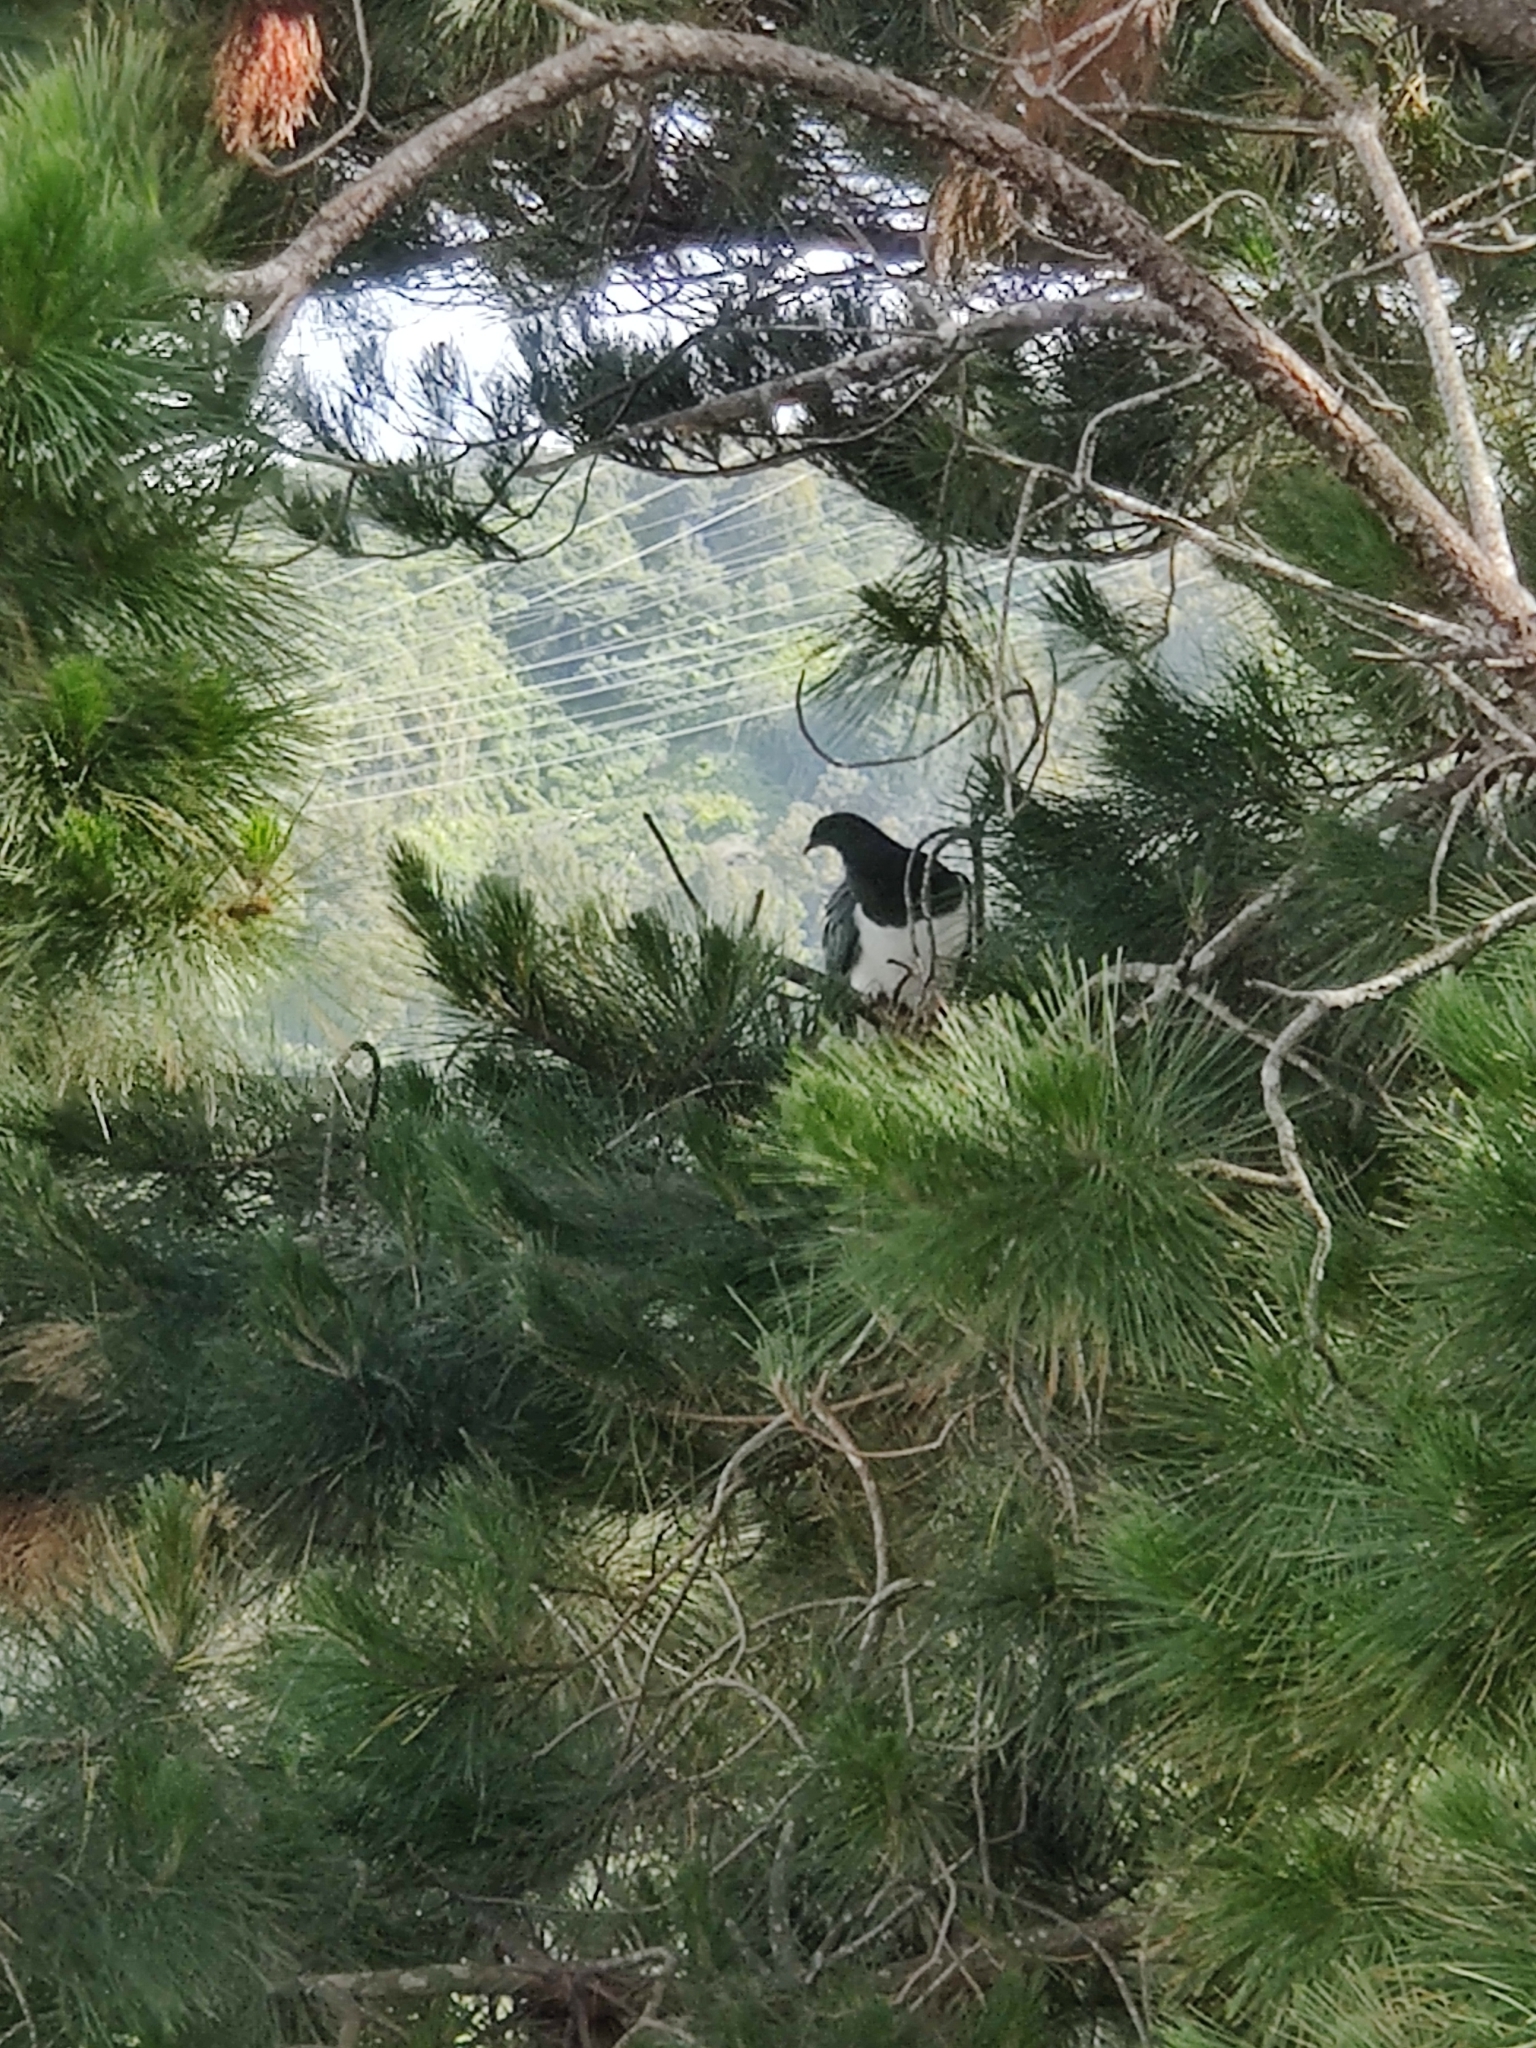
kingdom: Animalia
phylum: Chordata
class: Aves
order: Columbiformes
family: Columbidae
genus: Hemiphaga
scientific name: Hemiphaga novaeseelandiae
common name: New zealand pigeon
